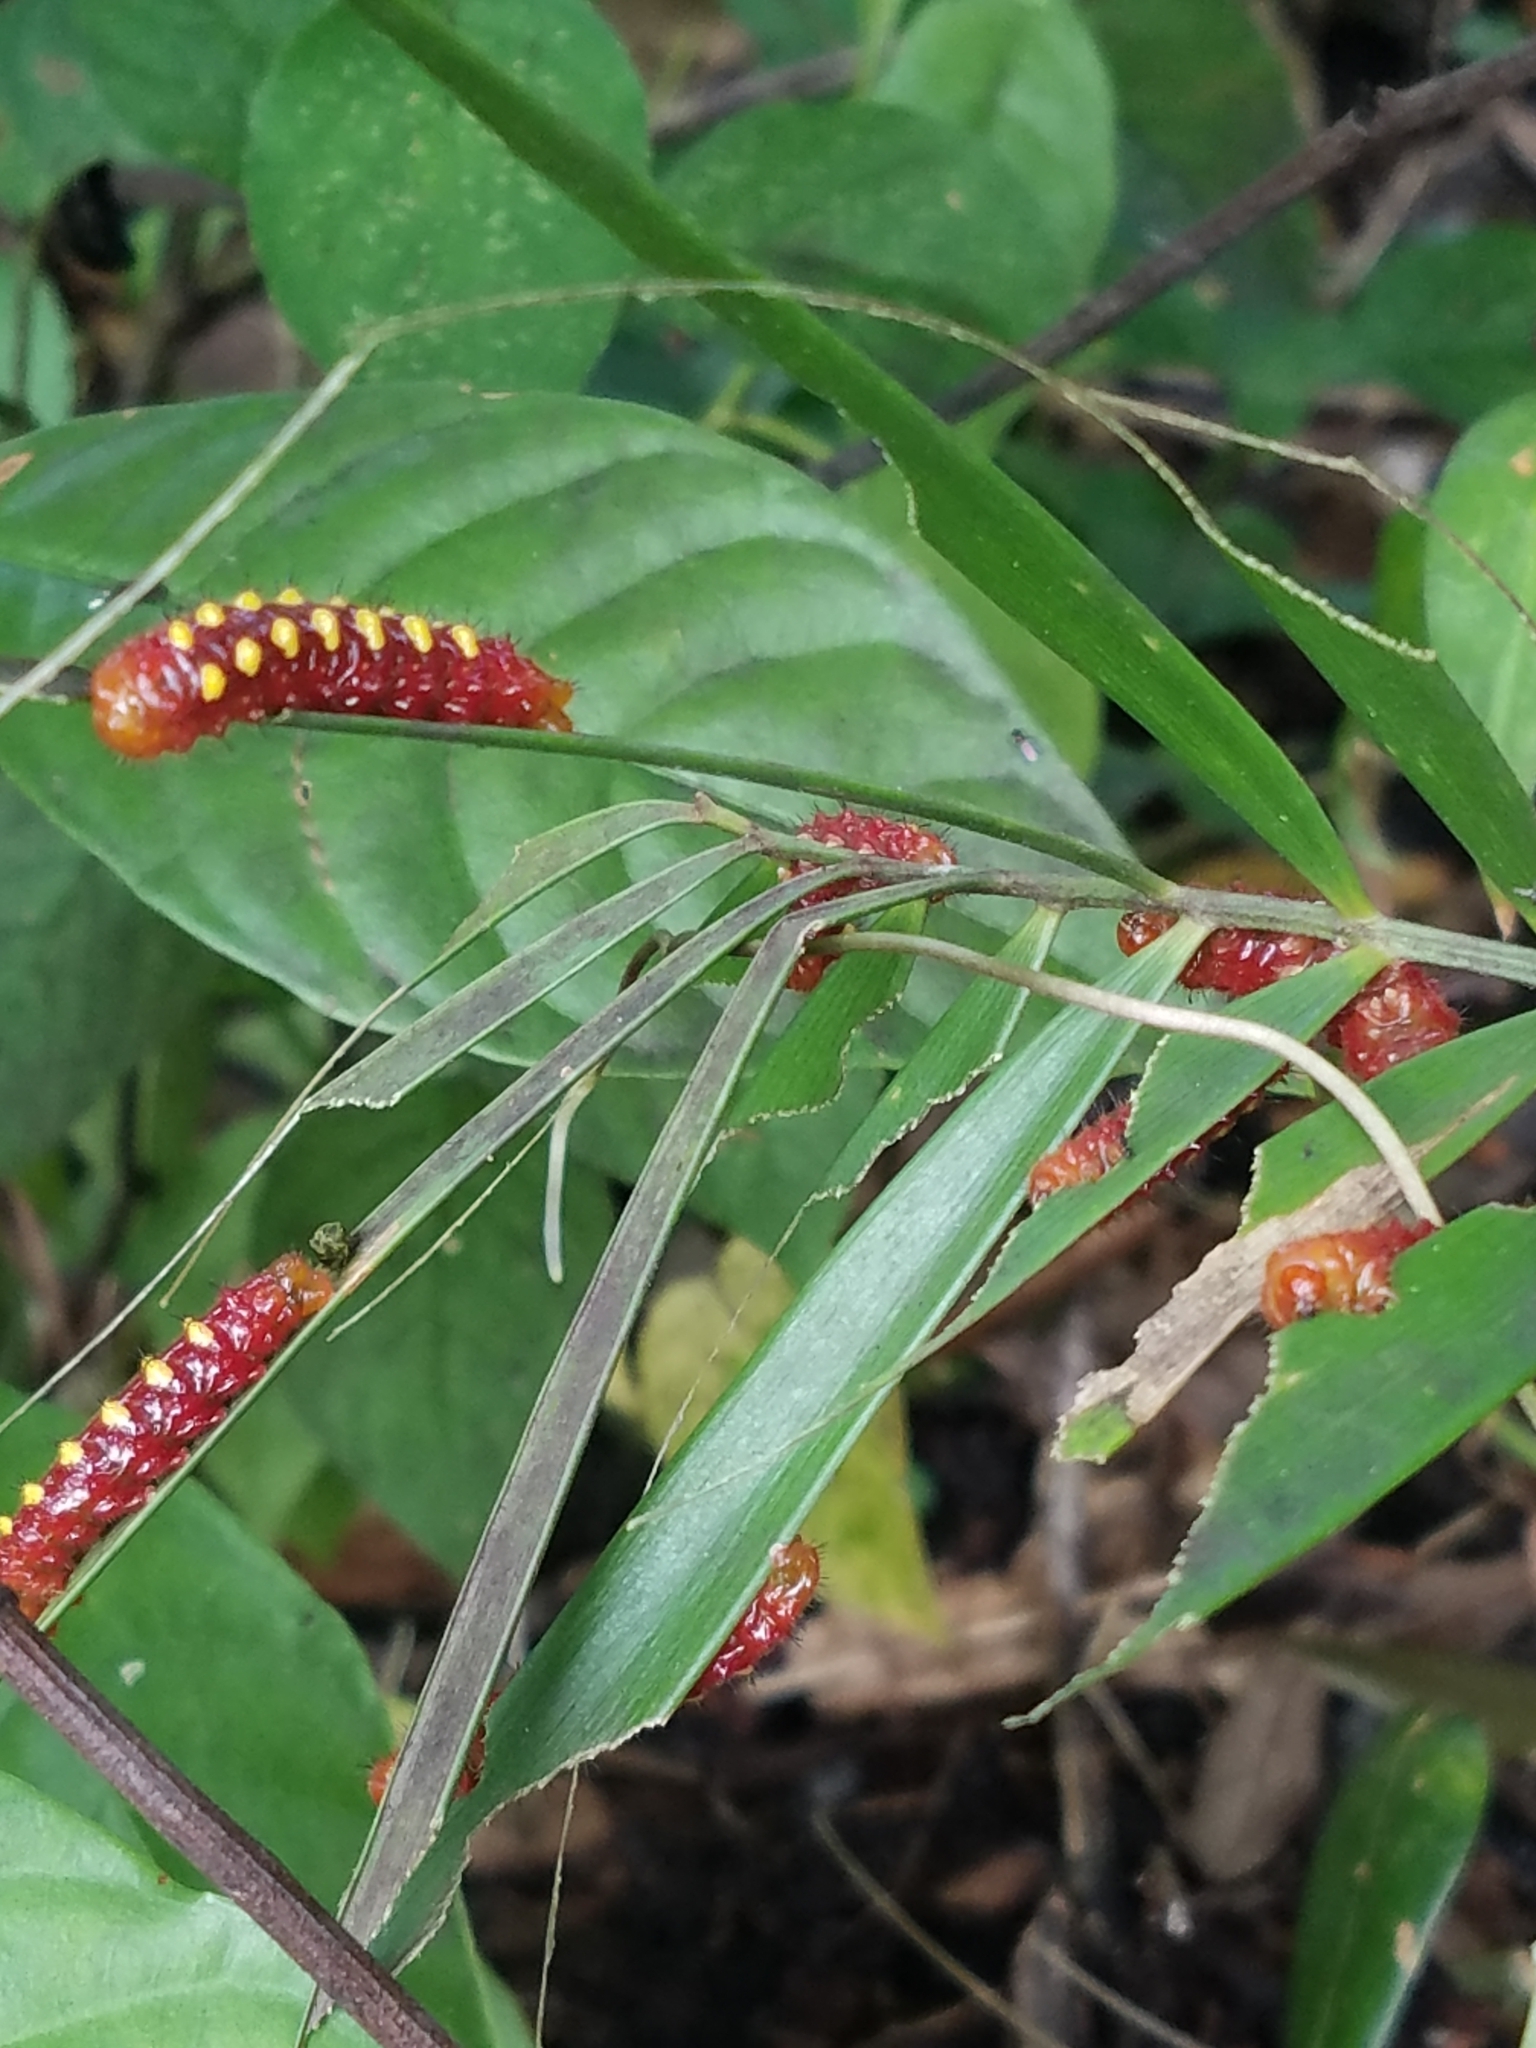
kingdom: Animalia
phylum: Arthropoda
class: Insecta
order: Lepidoptera
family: Lycaenidae
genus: Eumaeus
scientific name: Eumaeus atala
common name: Atala
